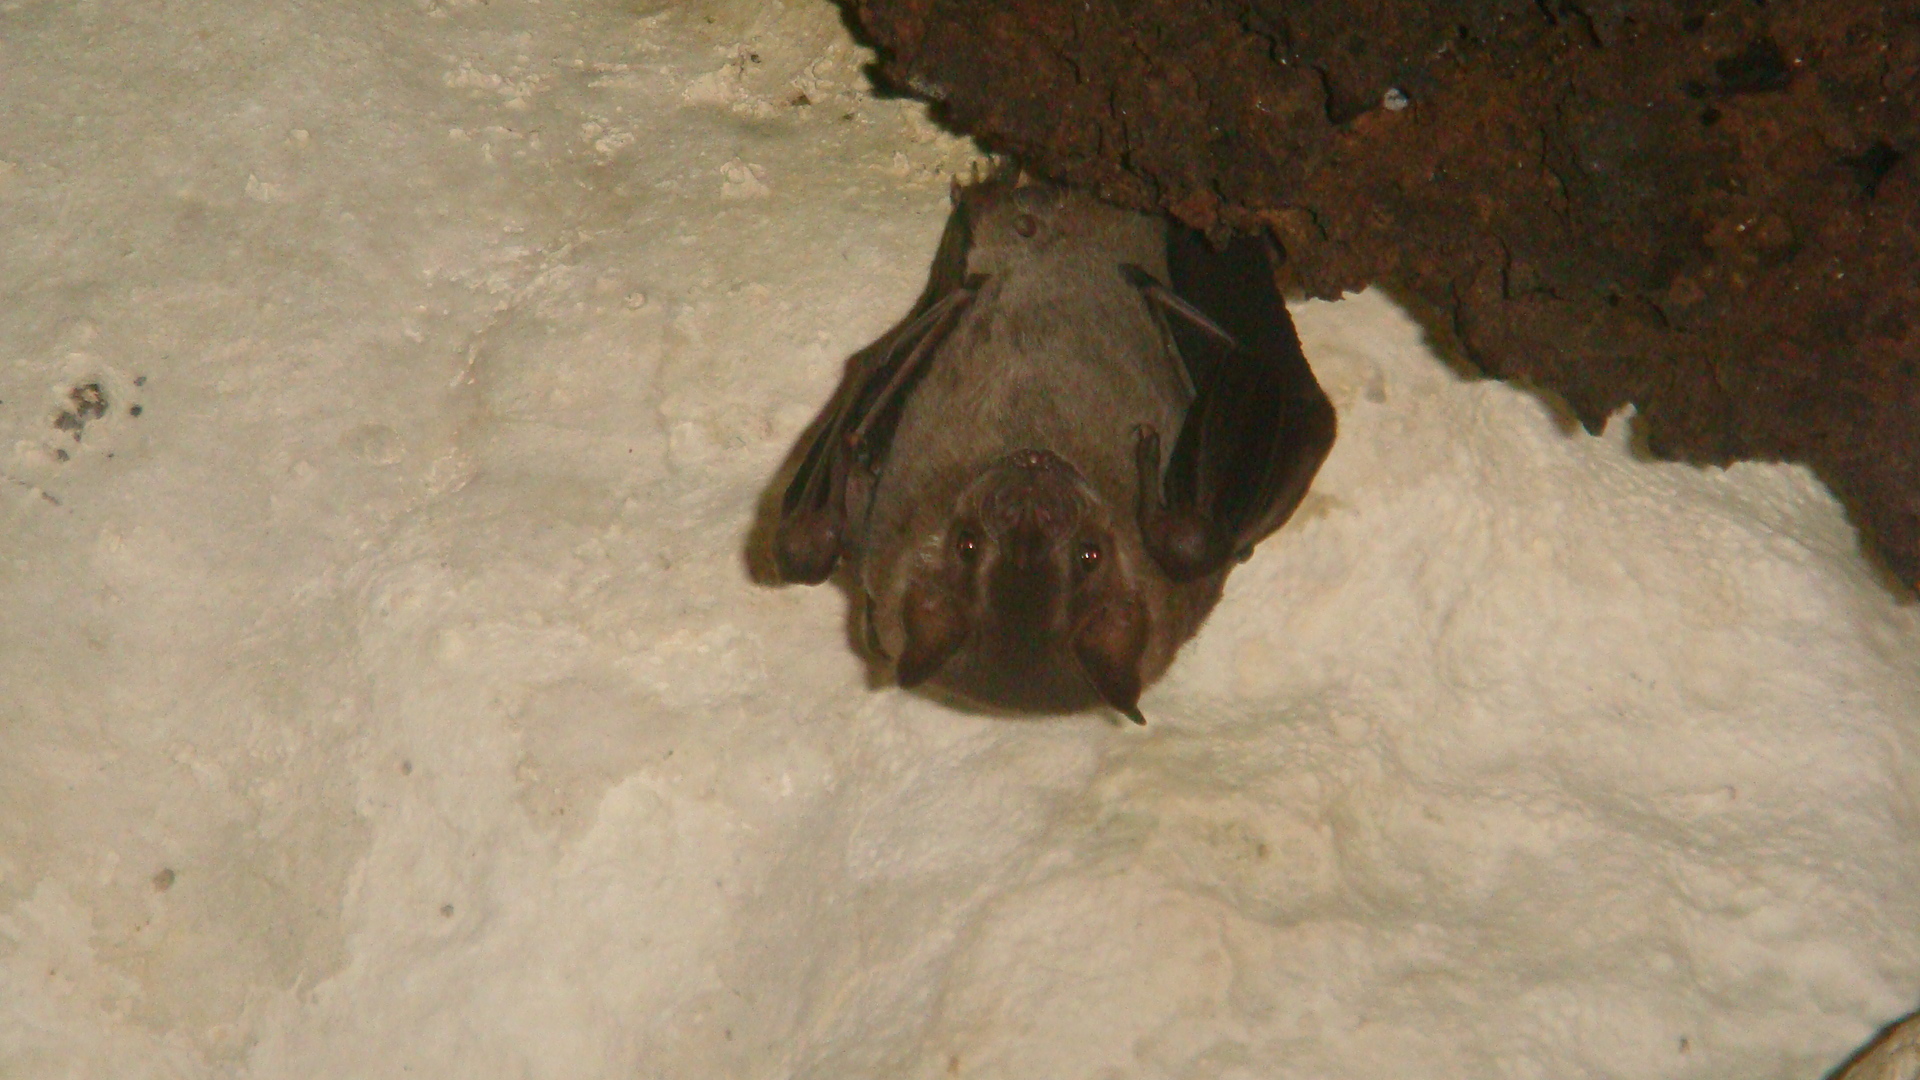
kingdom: Animalia
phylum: Chordata
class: Mammalia
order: Chiroptera
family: Phyllostomidae
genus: Artibeus
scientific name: Artibeus jamaicensis
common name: Jamaican fruit-eating bat
